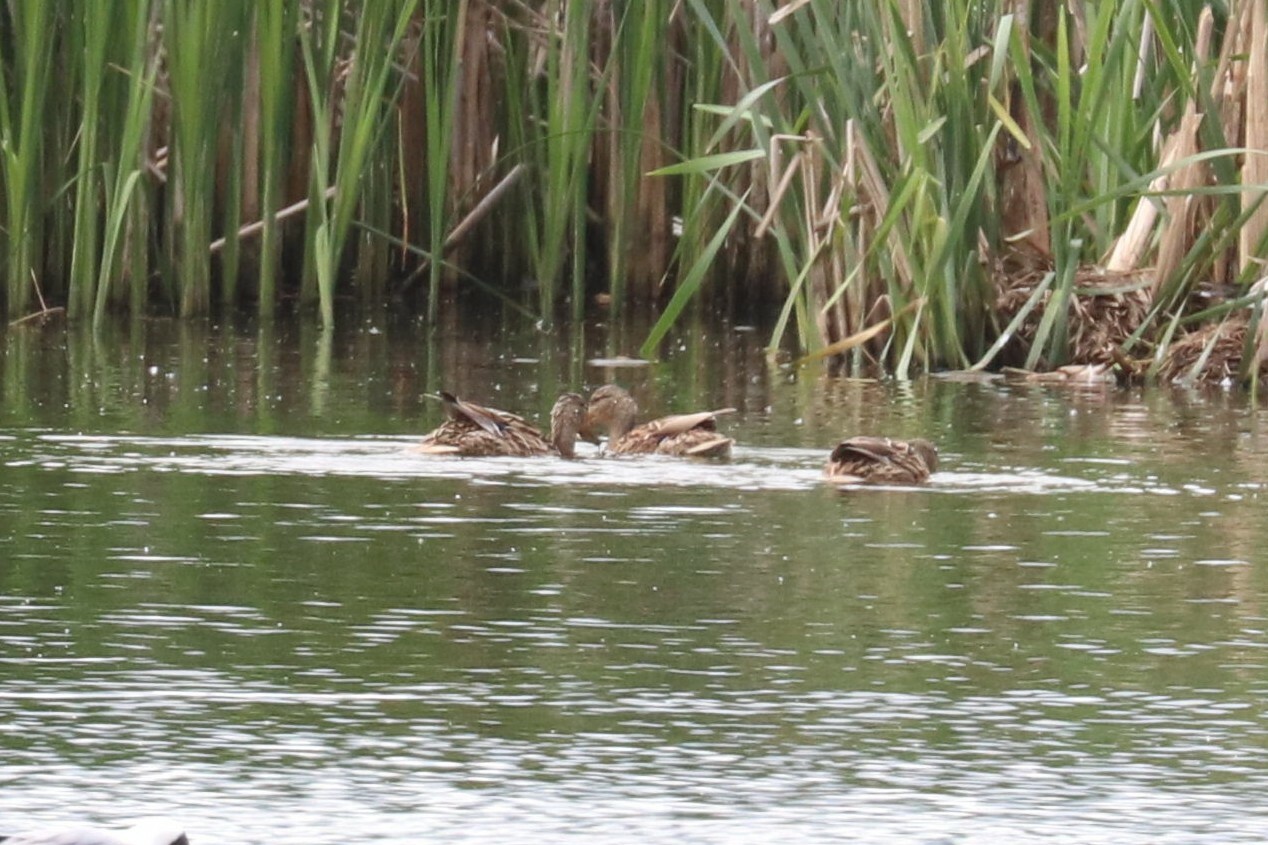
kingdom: Animalia
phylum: Chordata
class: Aves
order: Anseriformes
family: Anatidae
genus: Spatula
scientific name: Spatula clypeata
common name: Northern shoveler
